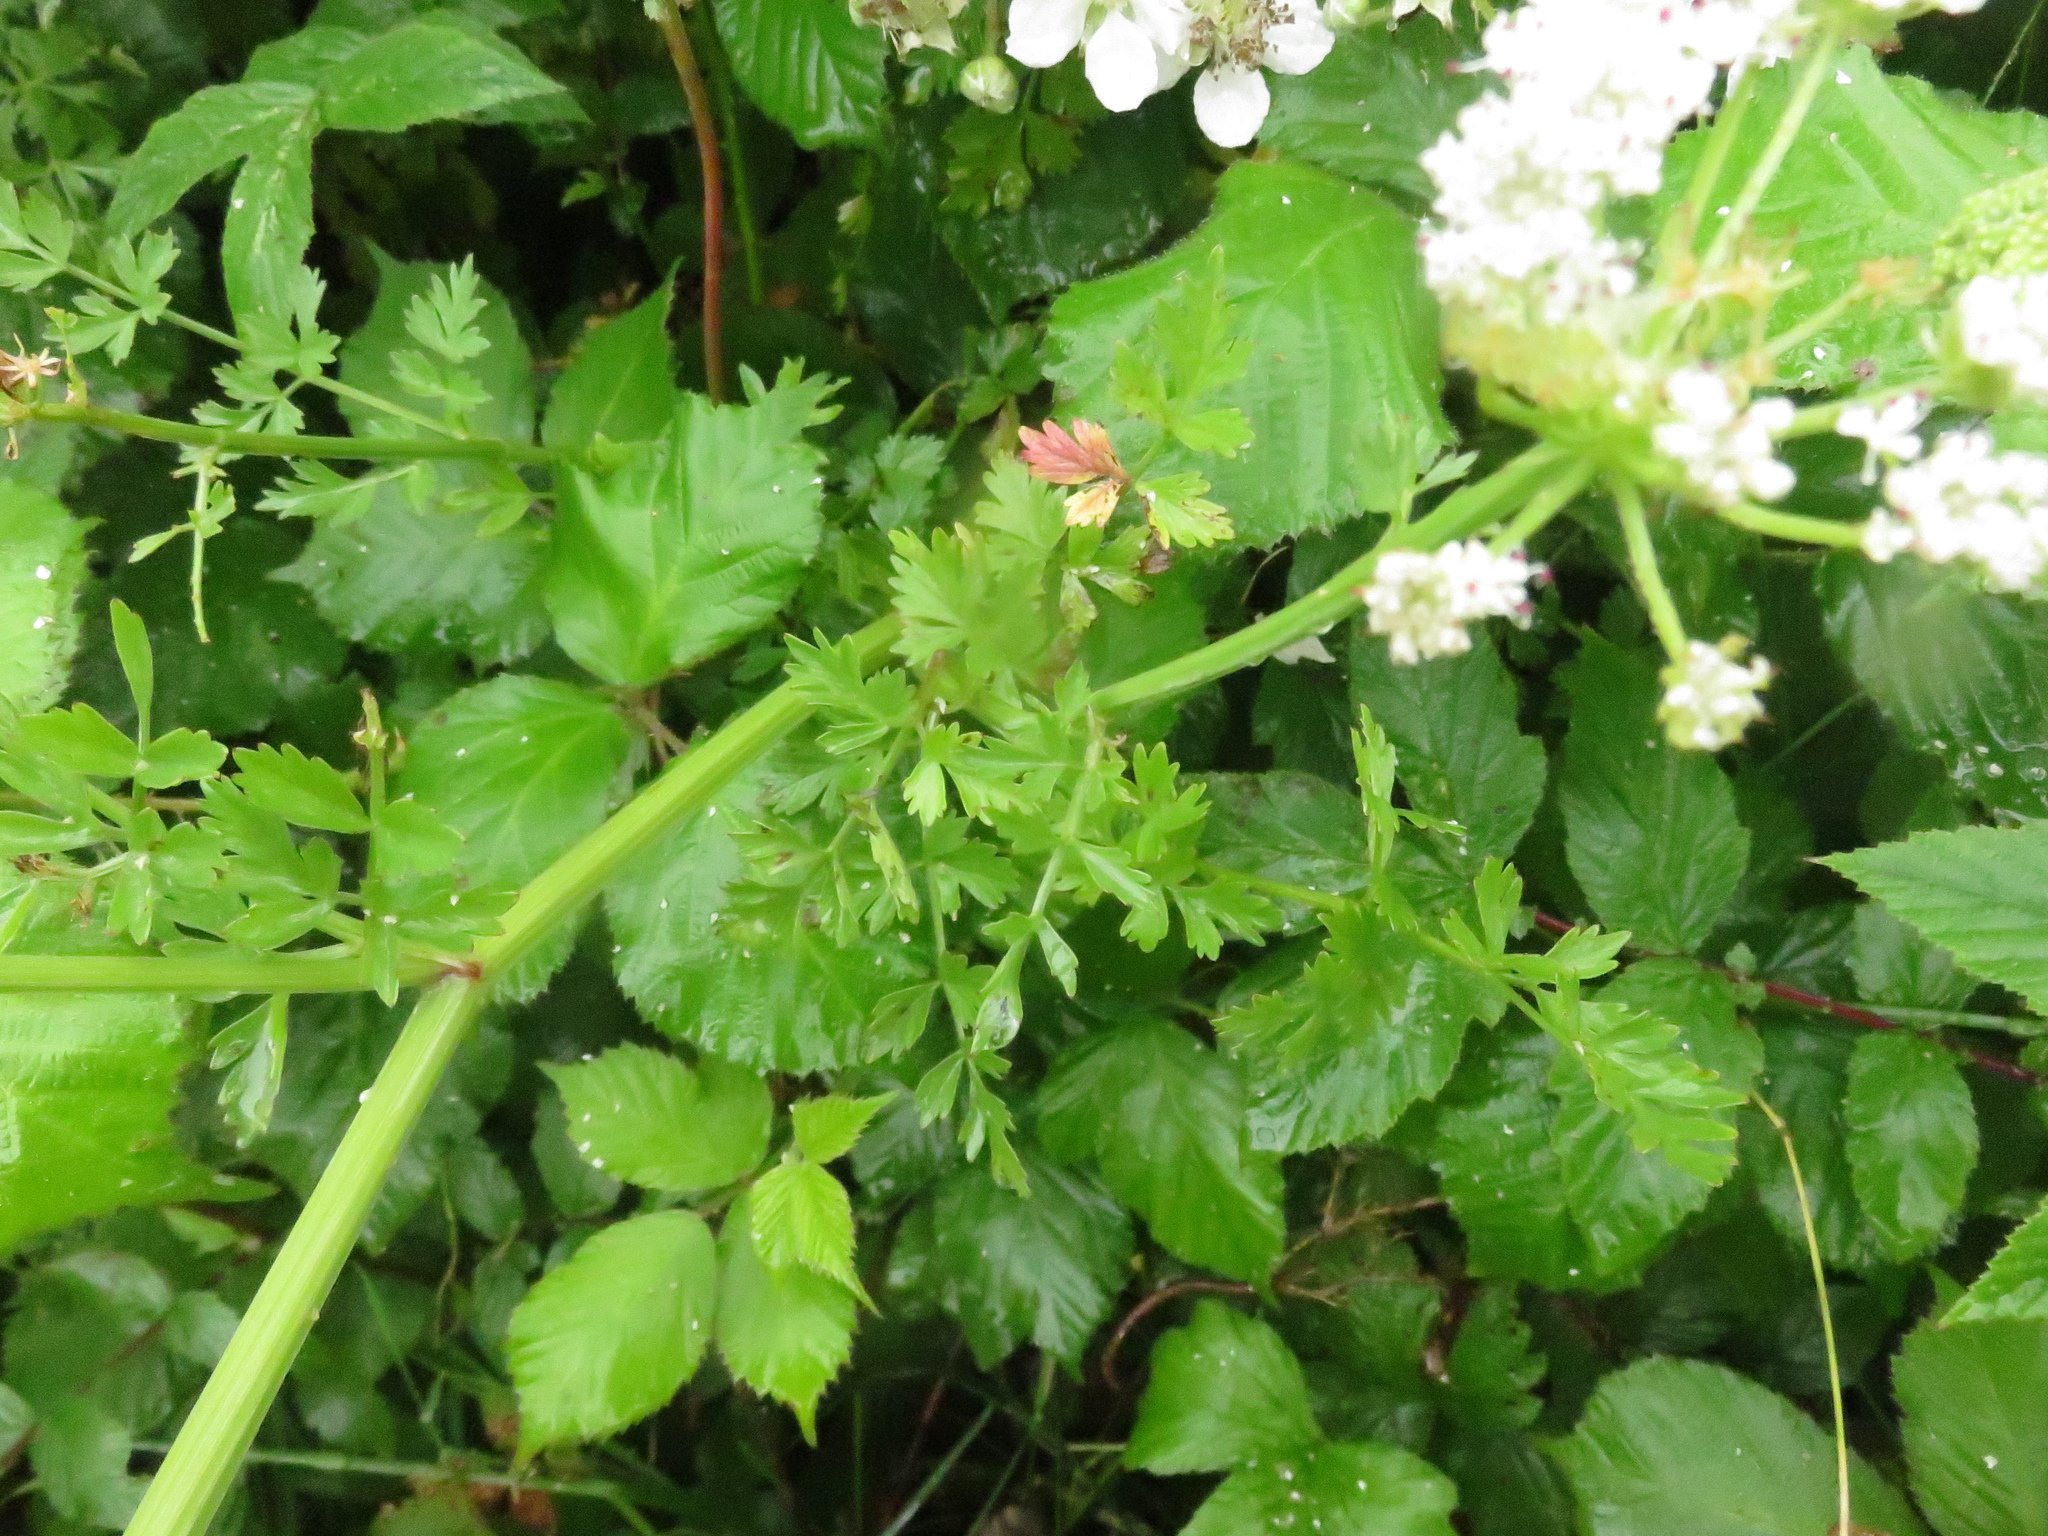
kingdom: Plantae
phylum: Tracheophyta
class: Magnoliopsida
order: Apiales
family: Apiaceae
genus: Oenanthe
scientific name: Oenanthe crocata
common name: Hemlock water-dropwort
